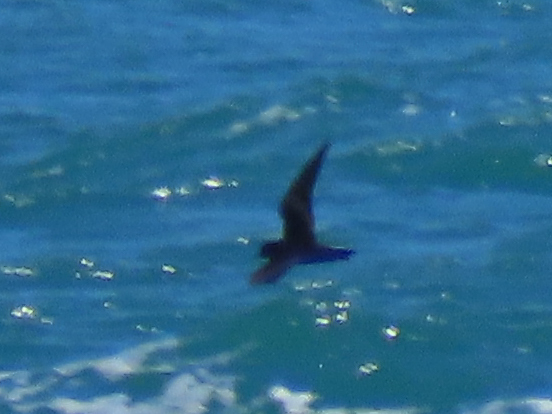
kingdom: Animalia
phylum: Chordata
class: Aves
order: Procellariiformes
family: Hydrobatidae
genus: Hydrobates
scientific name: Hydrobates melania
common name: Black storm petrel
